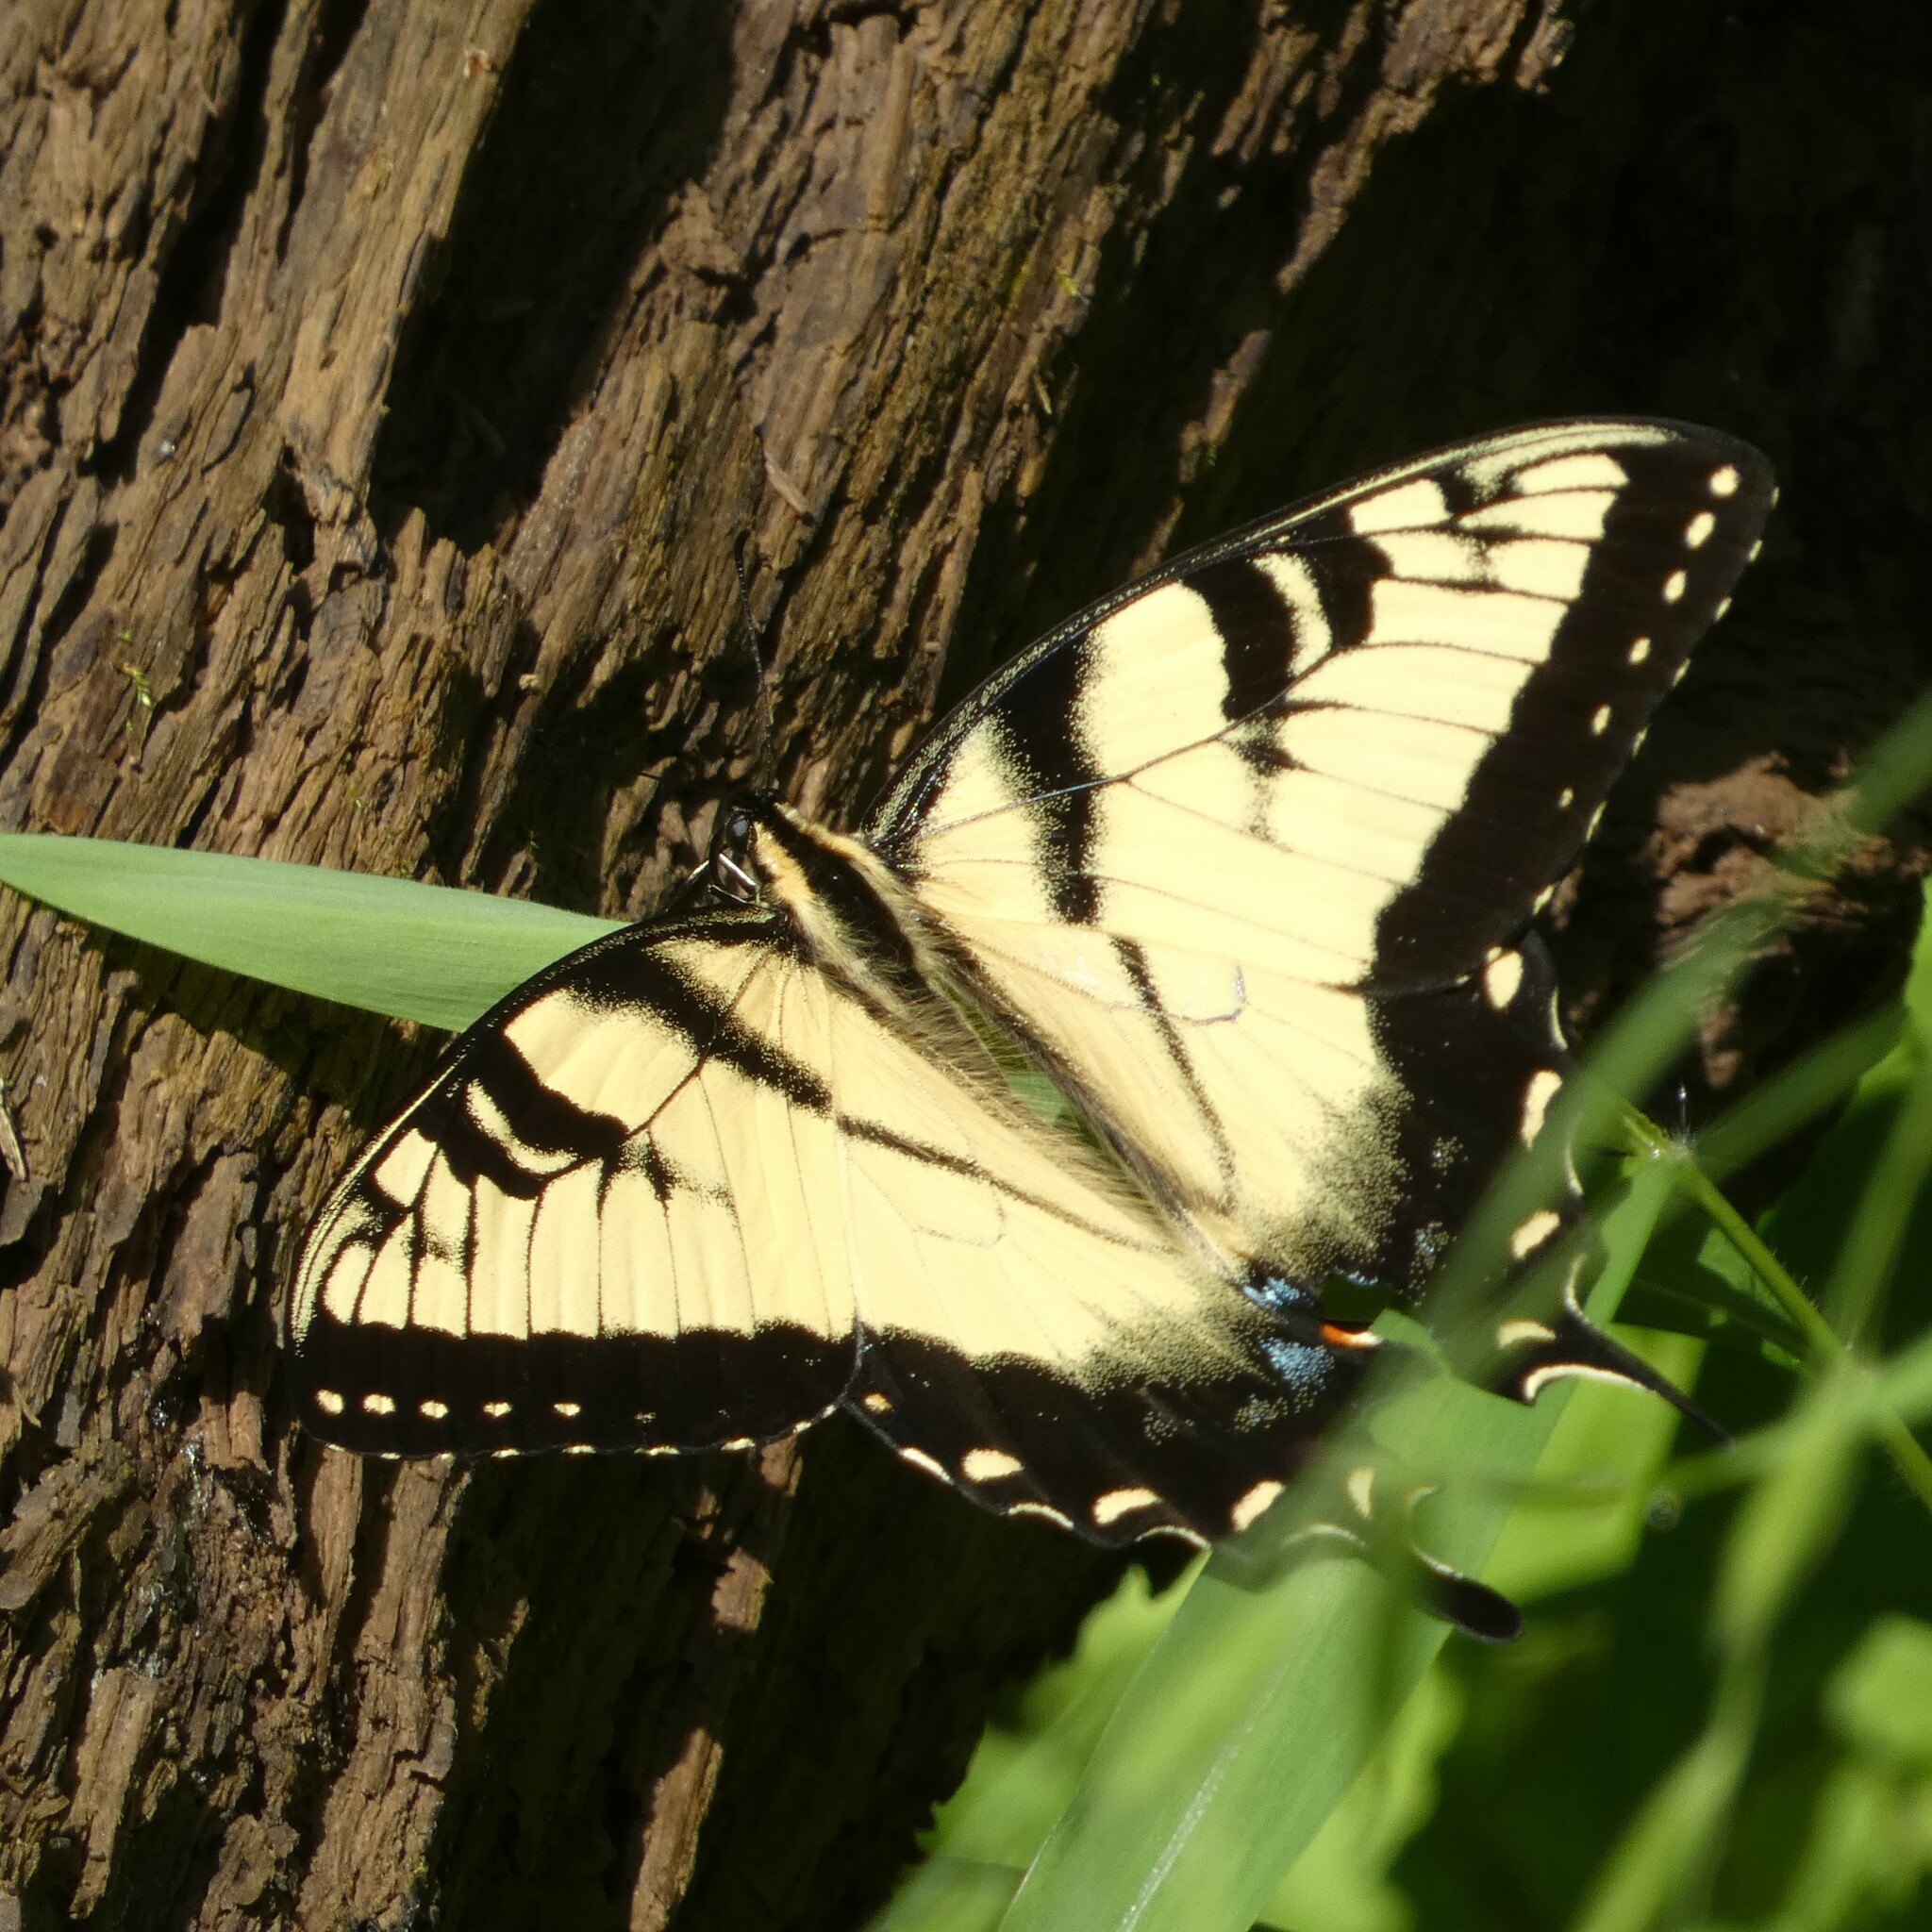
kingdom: Animalia
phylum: Arthropoda
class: Insecta
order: Lepidoptera
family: Papilionidae
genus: Papilio
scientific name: Papilio glaucus
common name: Tiger swallowtail
